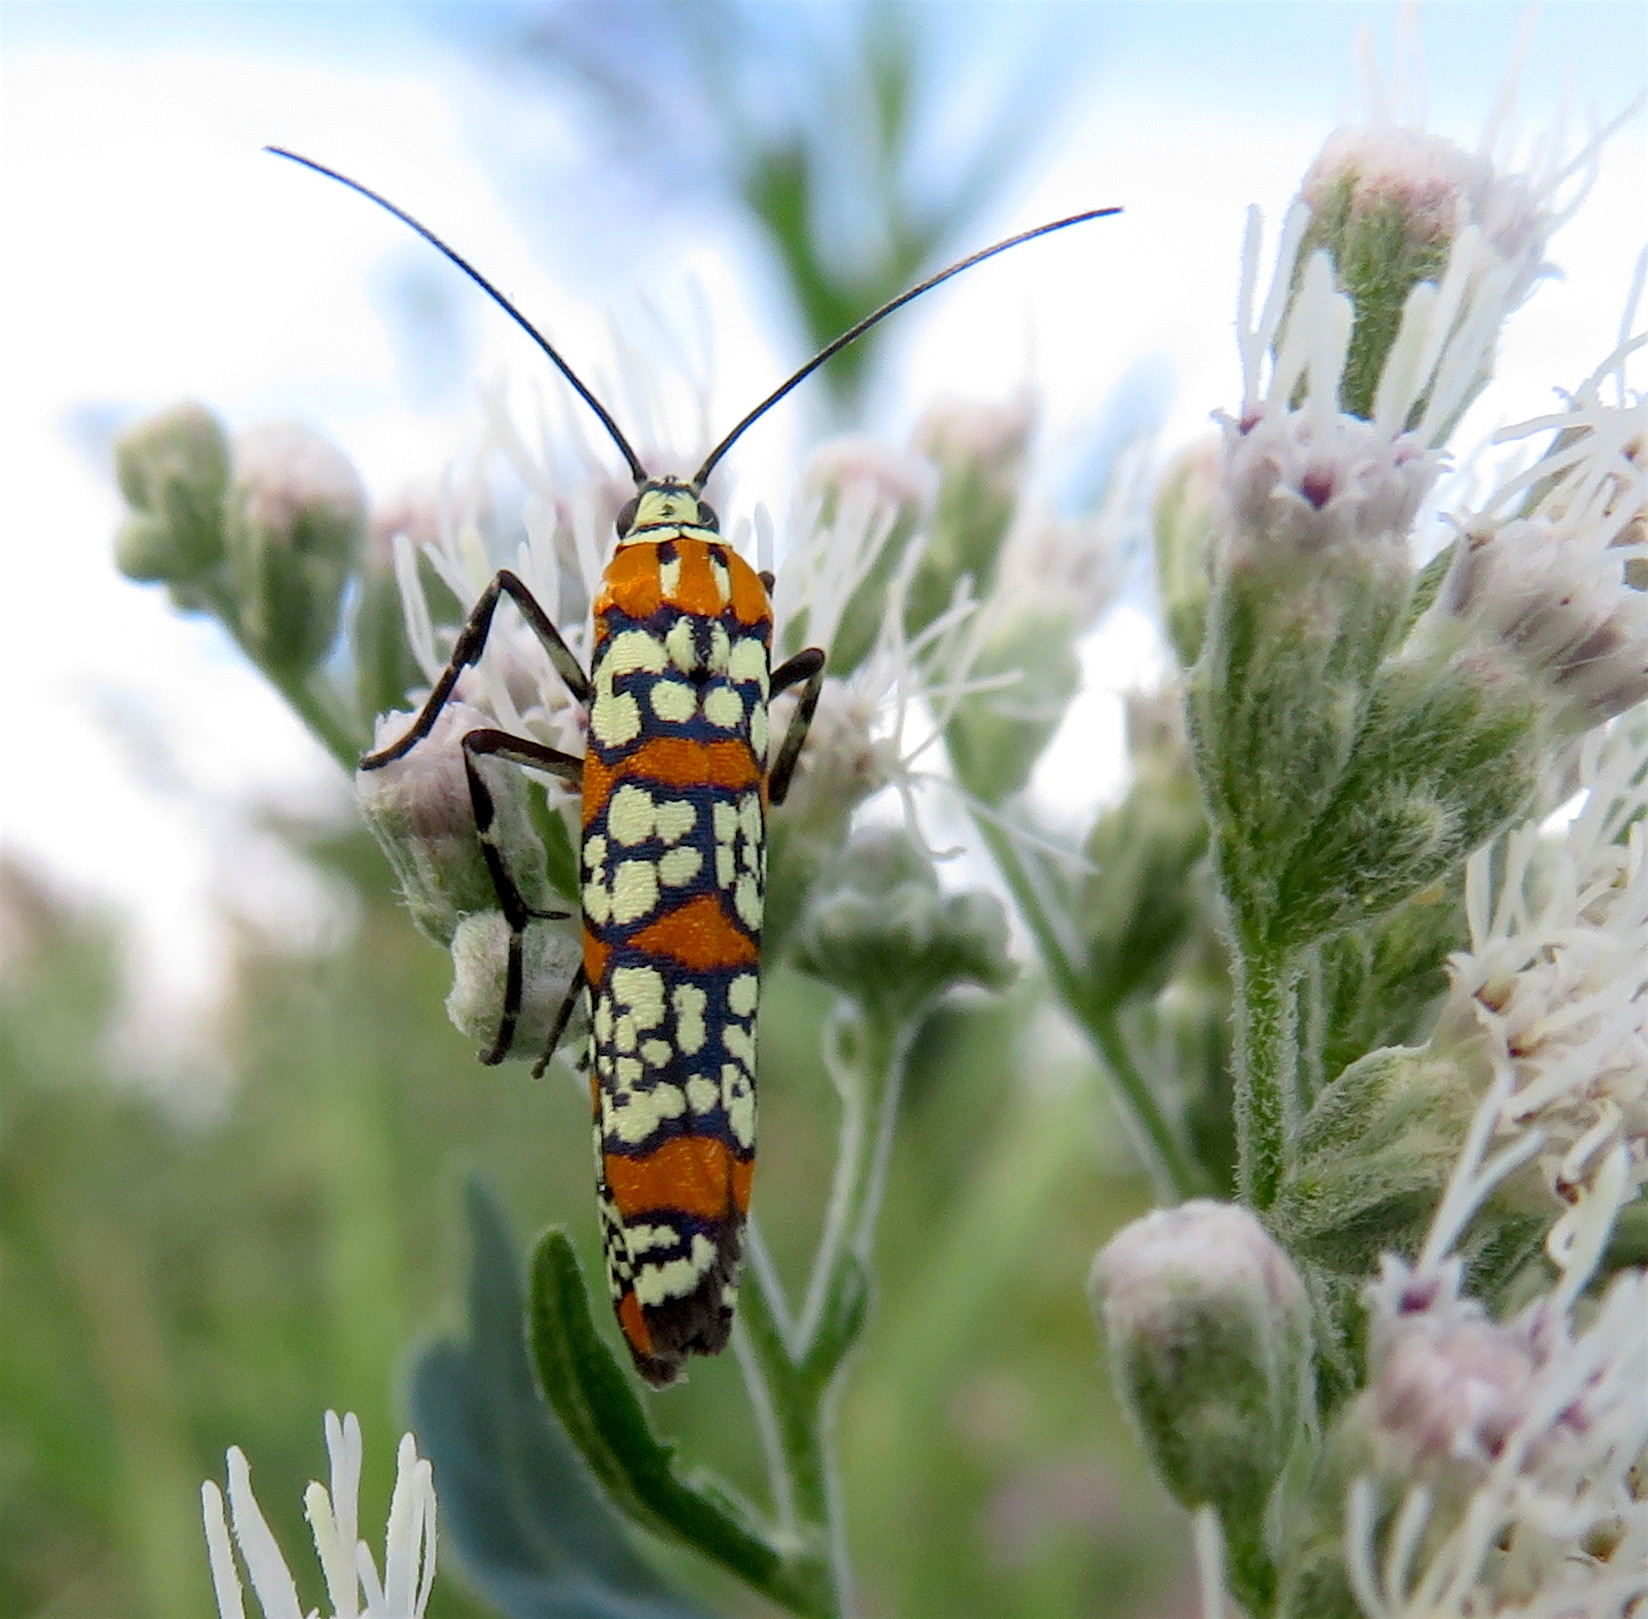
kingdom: Animalia
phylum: Arthropoda
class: Insecta
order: Lepidoptera
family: Attevidae
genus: Atteva
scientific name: Atteva punctella
